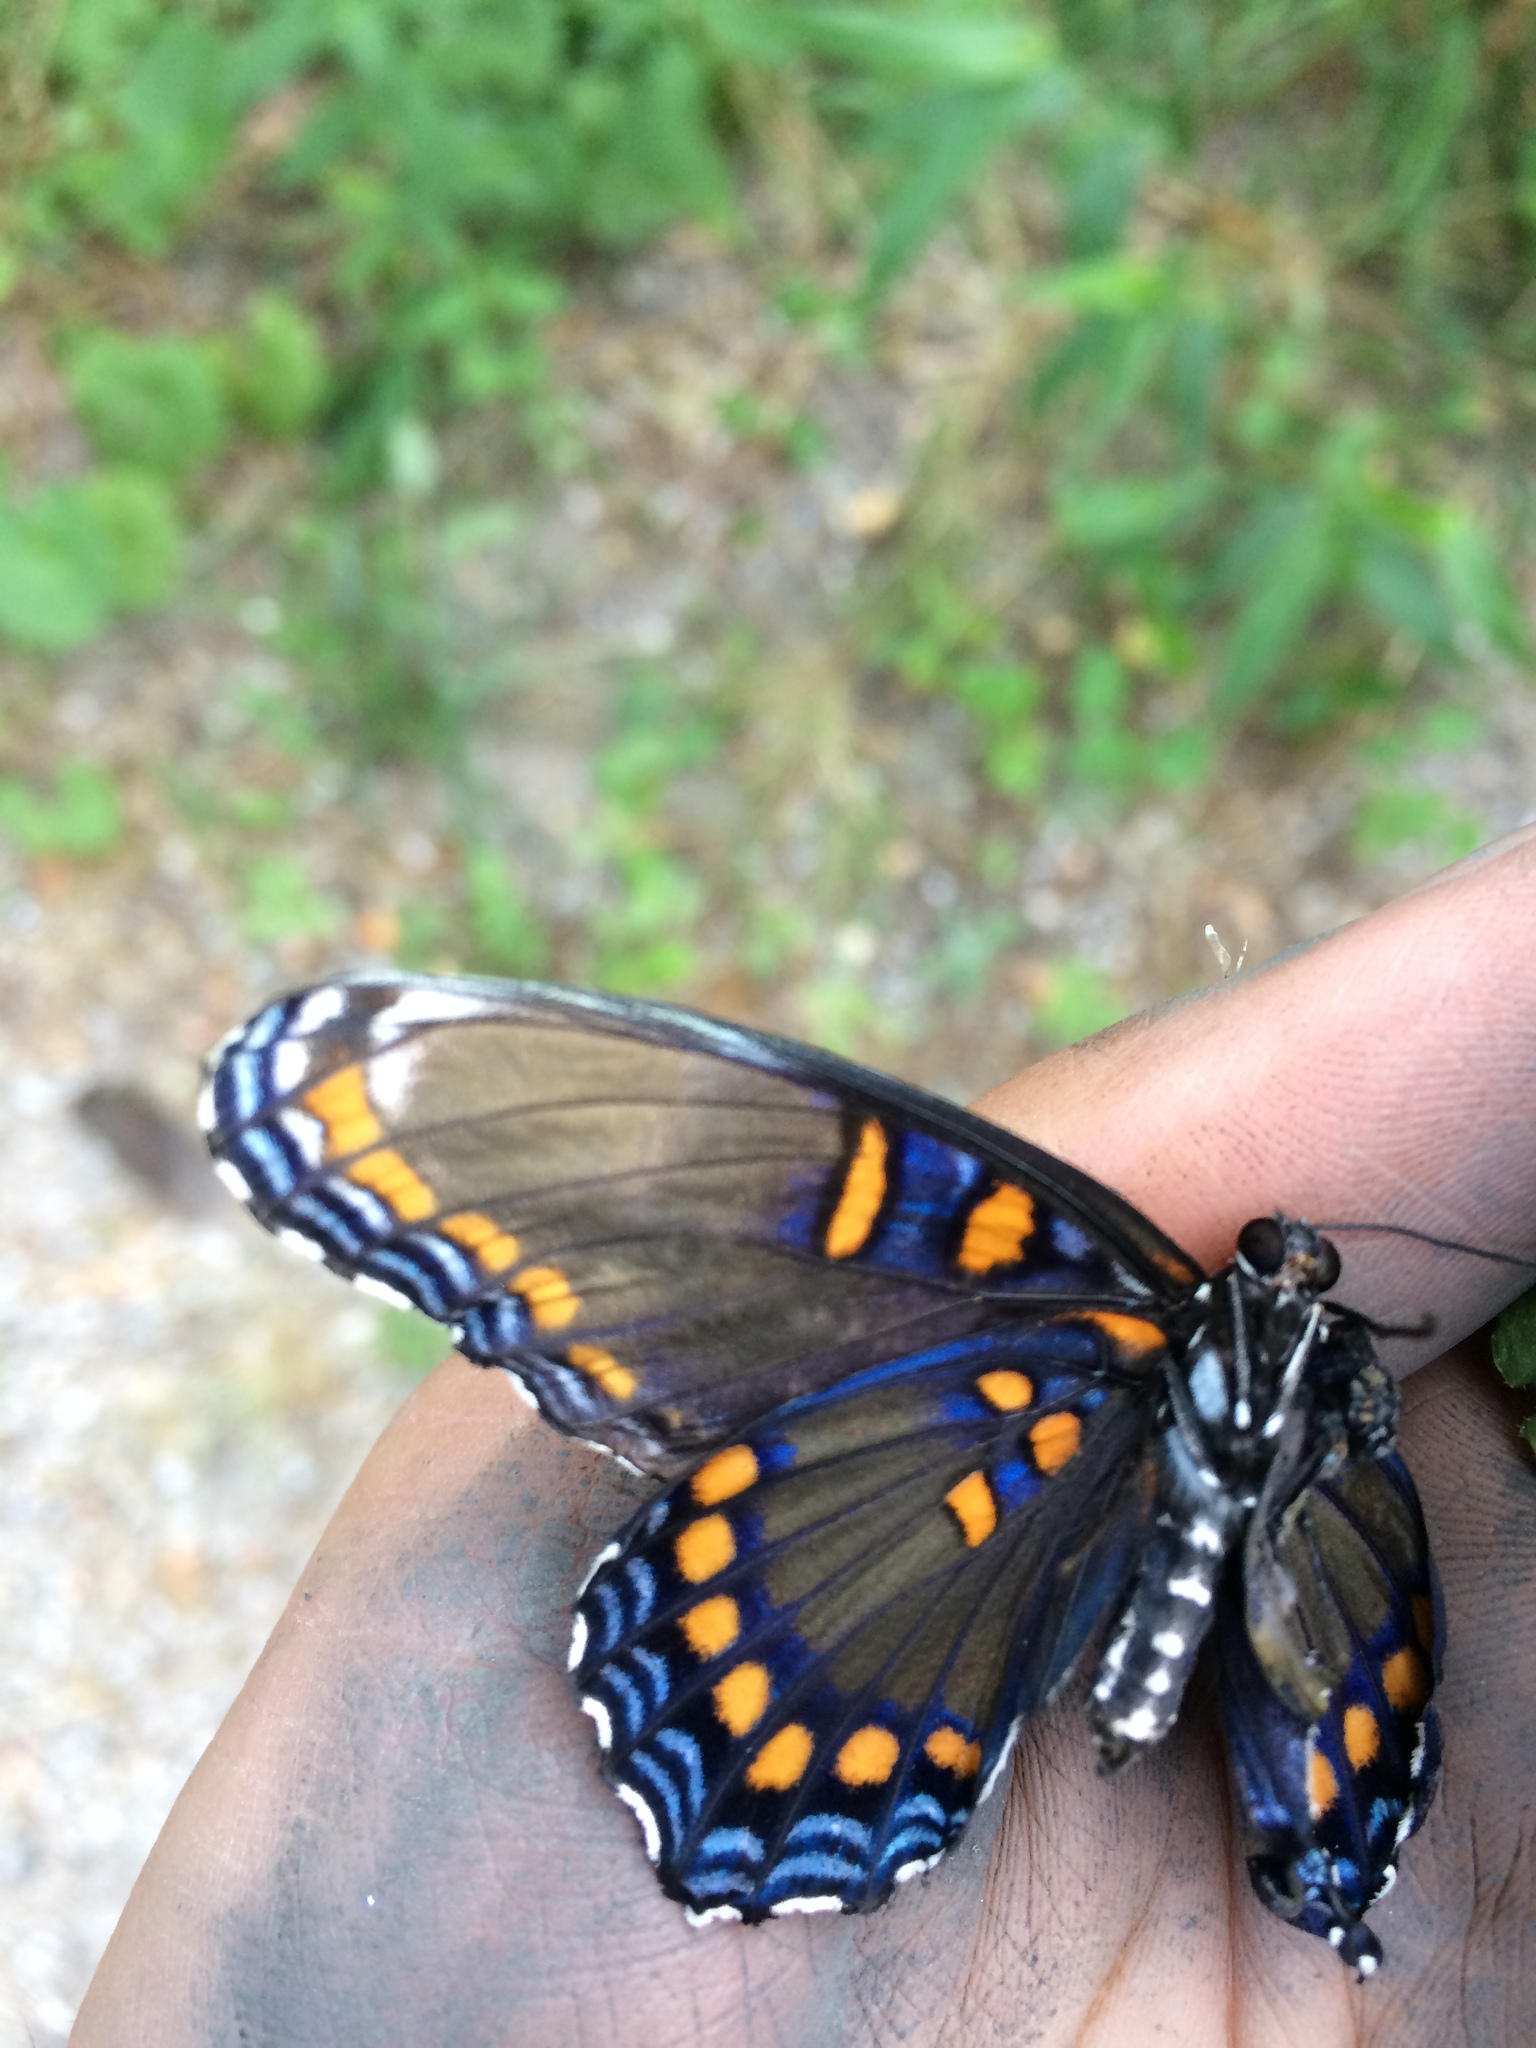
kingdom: Animalia
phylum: Arthropoda
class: Insecta
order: Lepidoptera
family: Nymphalidae
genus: Limenitis
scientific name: Limenitis astyanax
